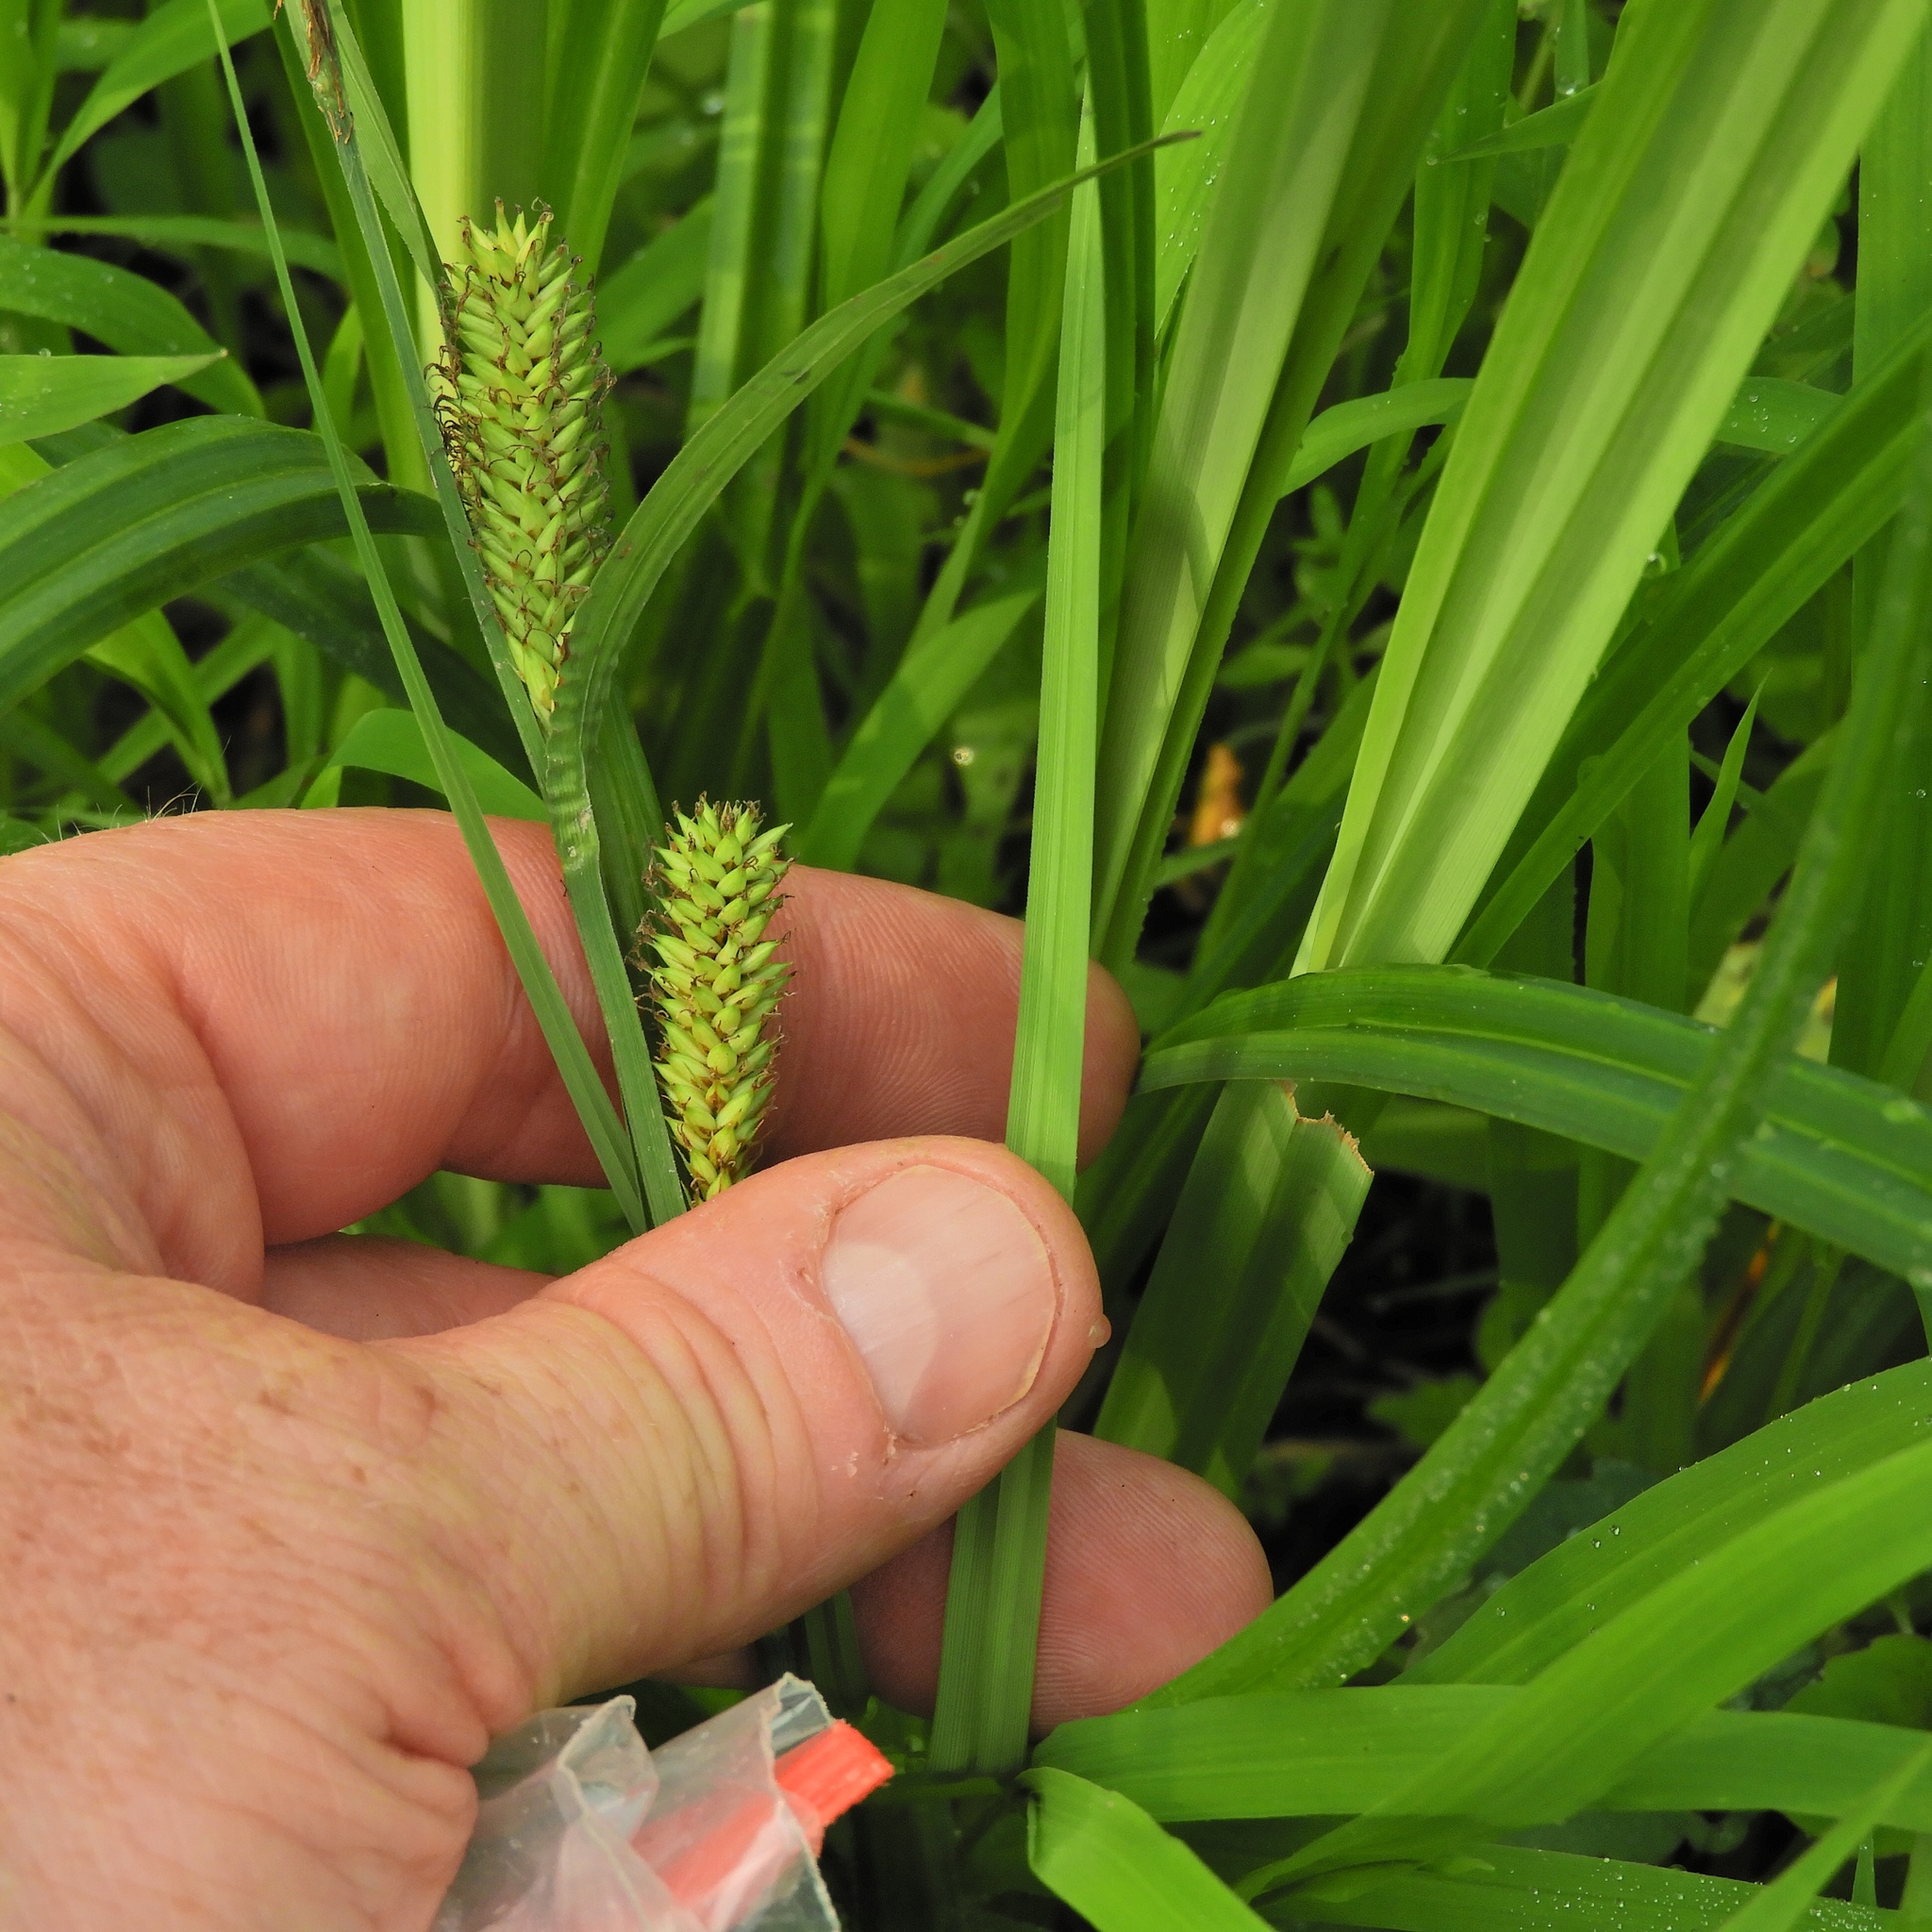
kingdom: Plantae
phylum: Tracheophyta
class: Liliopsida
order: Poales
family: Cyperaceae
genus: Carex
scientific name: Carex lacustris
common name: Common lake sedge
